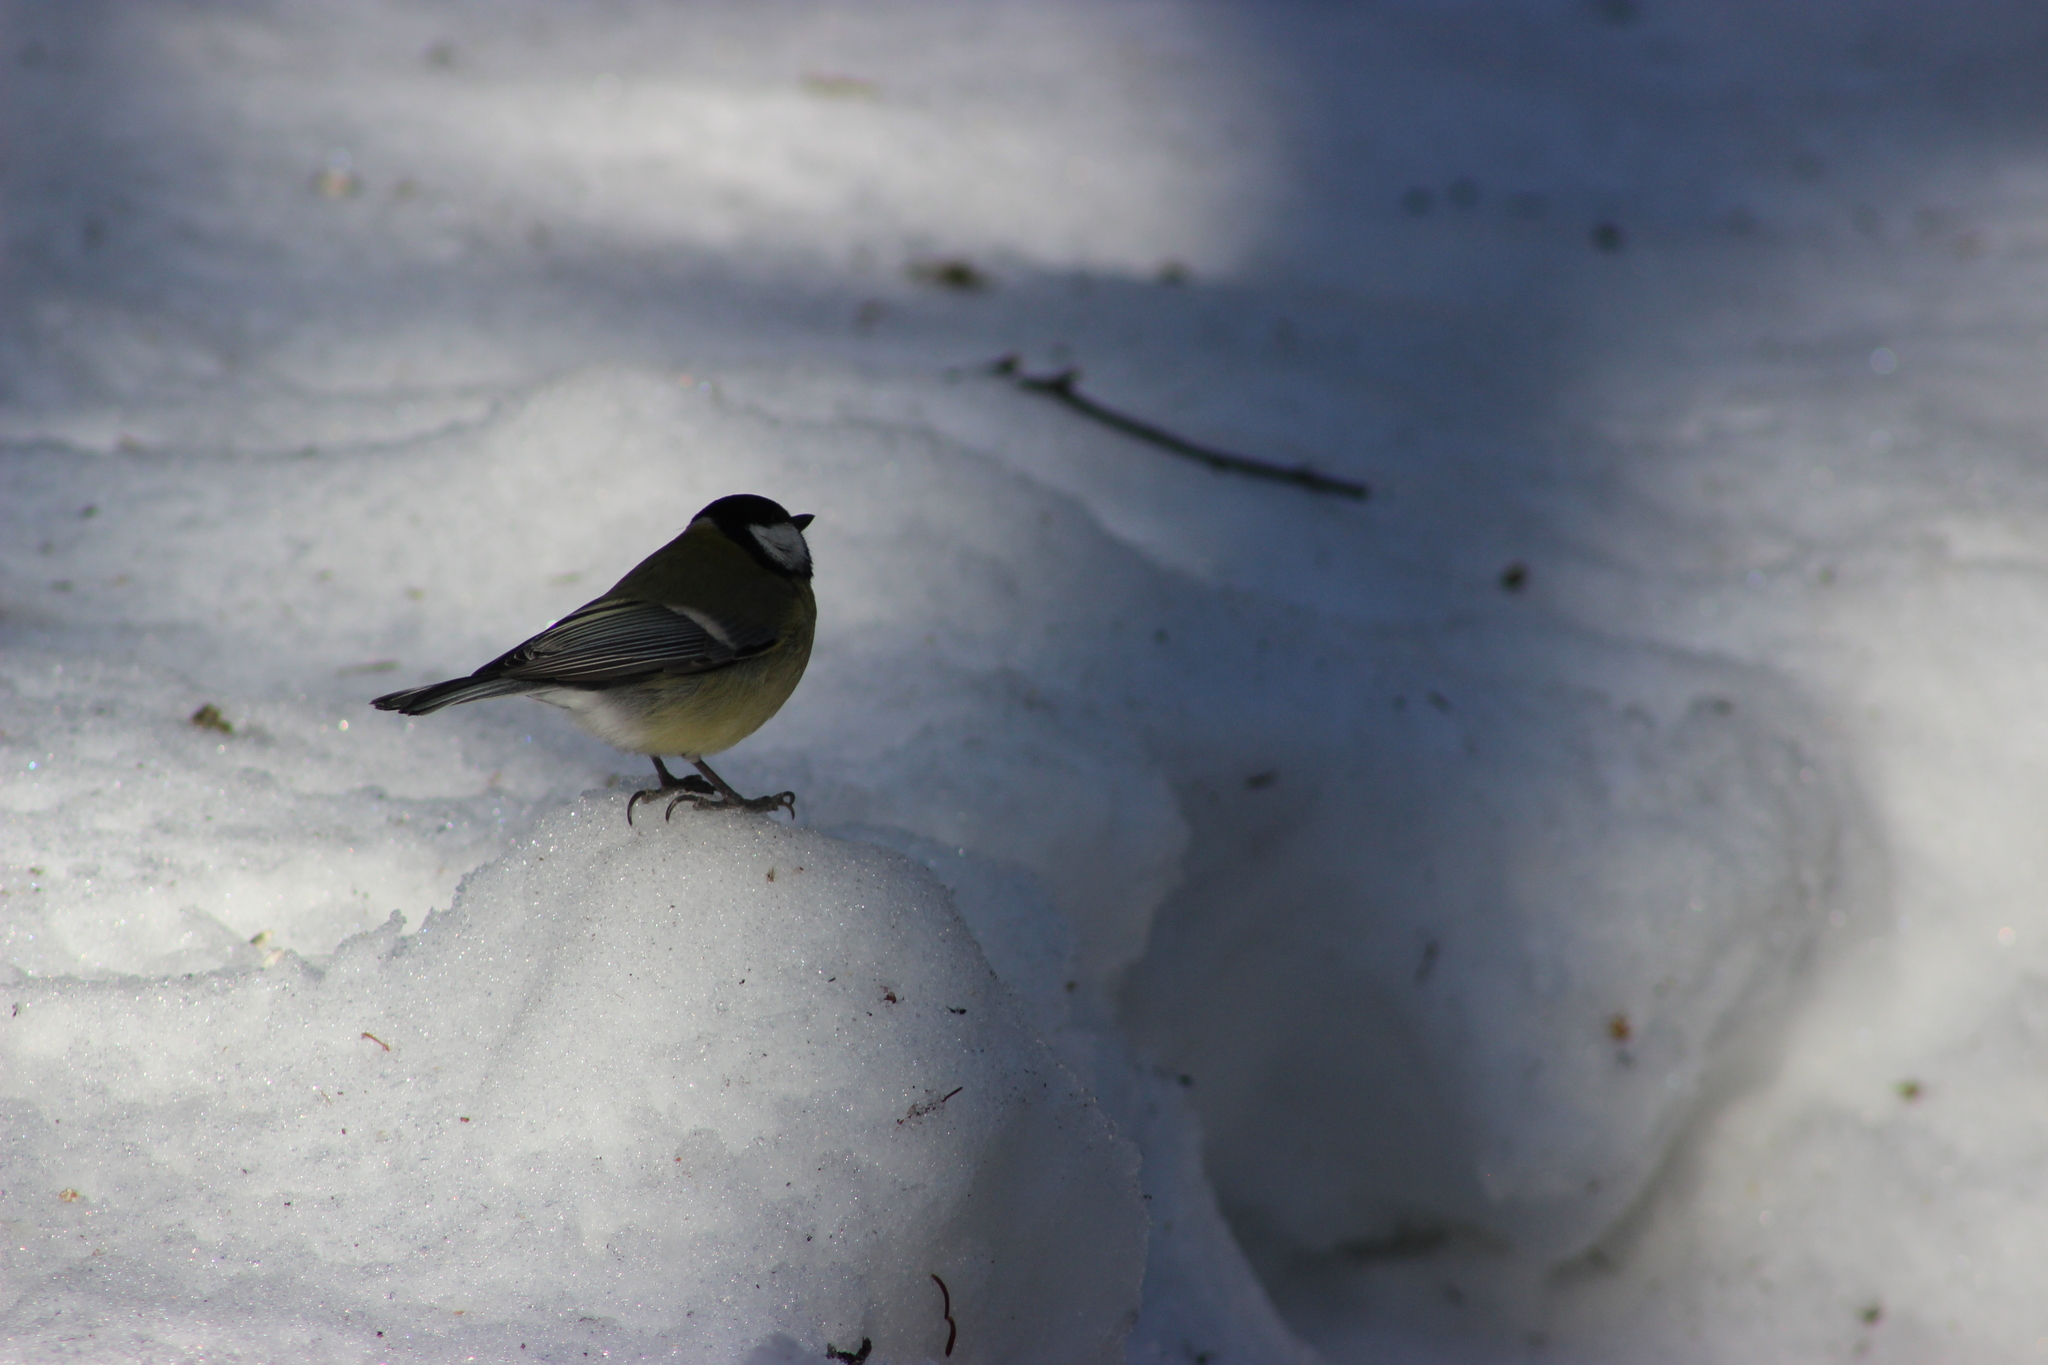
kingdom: Animalia
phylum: Chordata
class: Aves
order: Passeriformes
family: Paridae
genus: Parus
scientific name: Parus major
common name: Great tit
